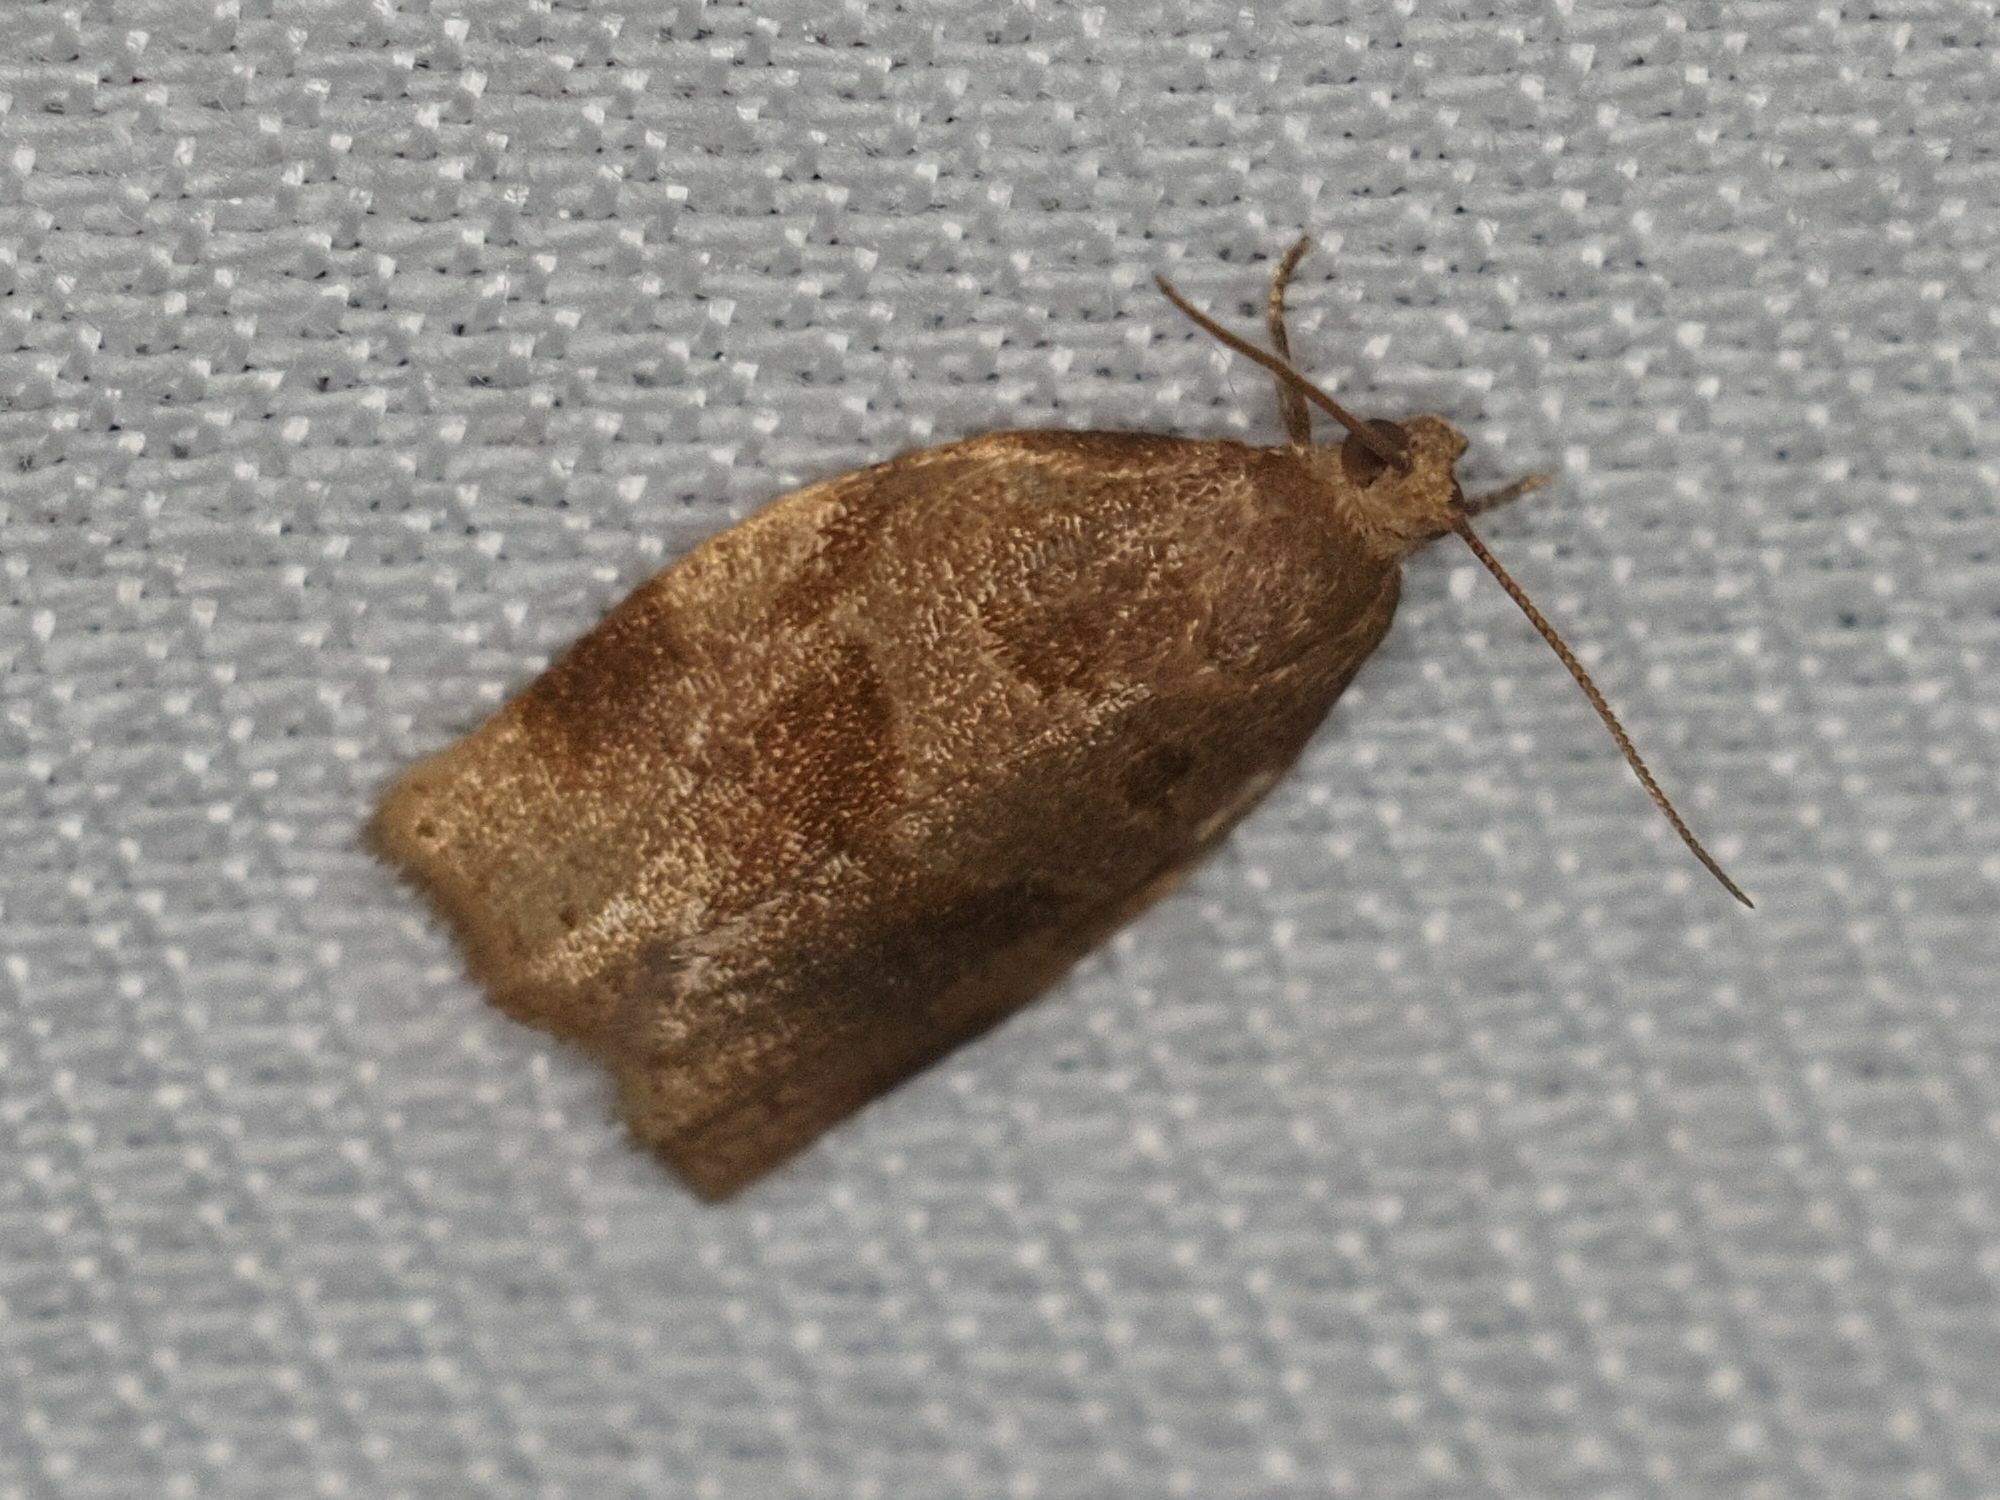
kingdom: Animalia
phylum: Arthropoda
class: Insecta
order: Lepidoptera
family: Tortricidae
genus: Archips
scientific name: Archips rosana
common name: Rose tortrix
